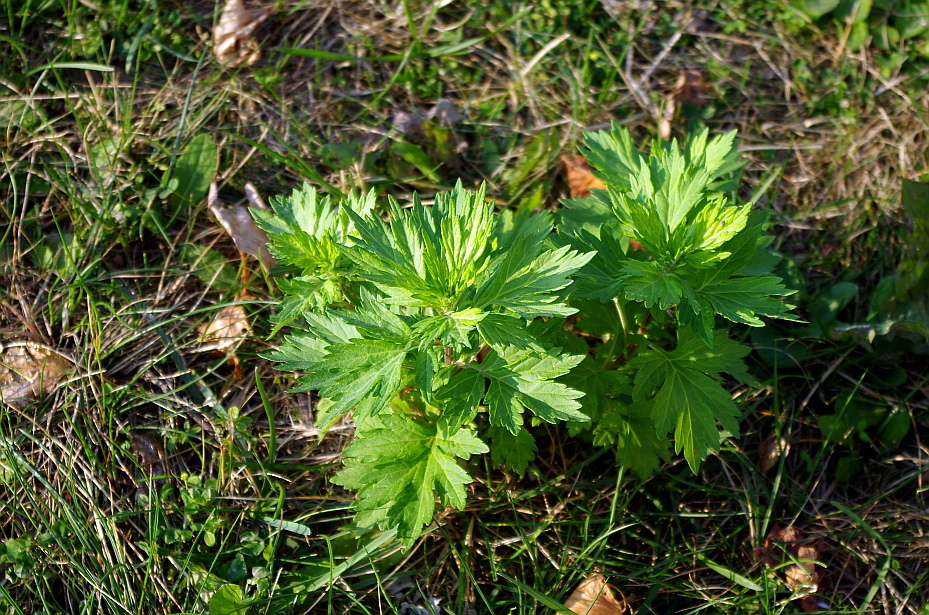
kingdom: Plantae
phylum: Tracheophyta
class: Magnoliopsida
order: Asterales
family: Asteraceae
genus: Artemisia
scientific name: Artemisia vulgaris
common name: Mugwort
